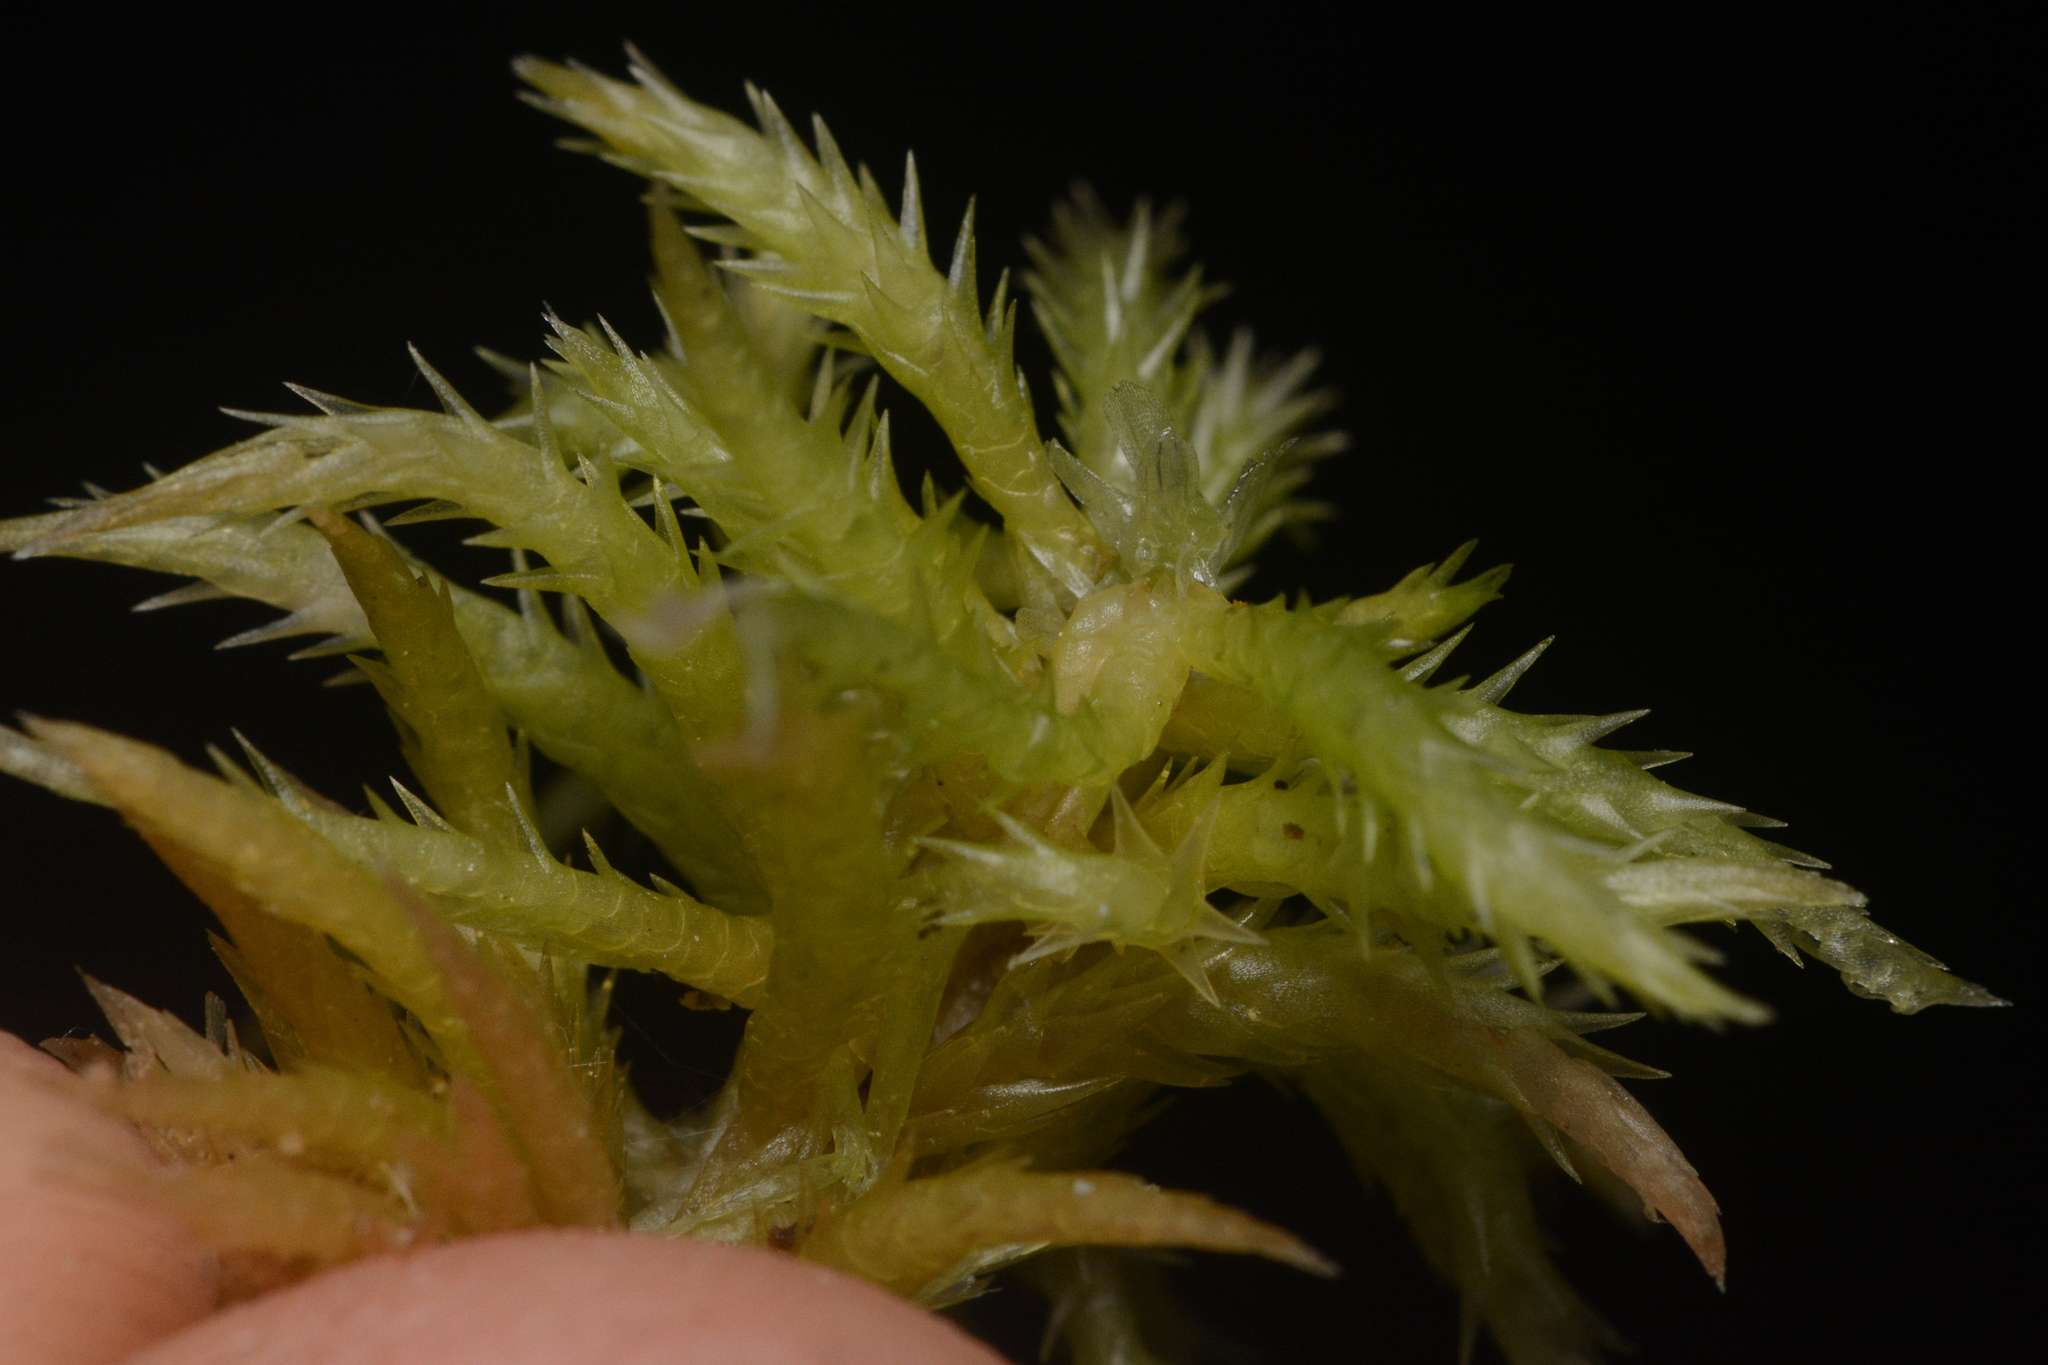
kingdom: Plantae
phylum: Bryophyta
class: Sphagnopsida
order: Sphagnales
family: Sphagnaceae
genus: Sphagnum
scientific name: Sphagnum squarrosum
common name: Shaggy peat moss
